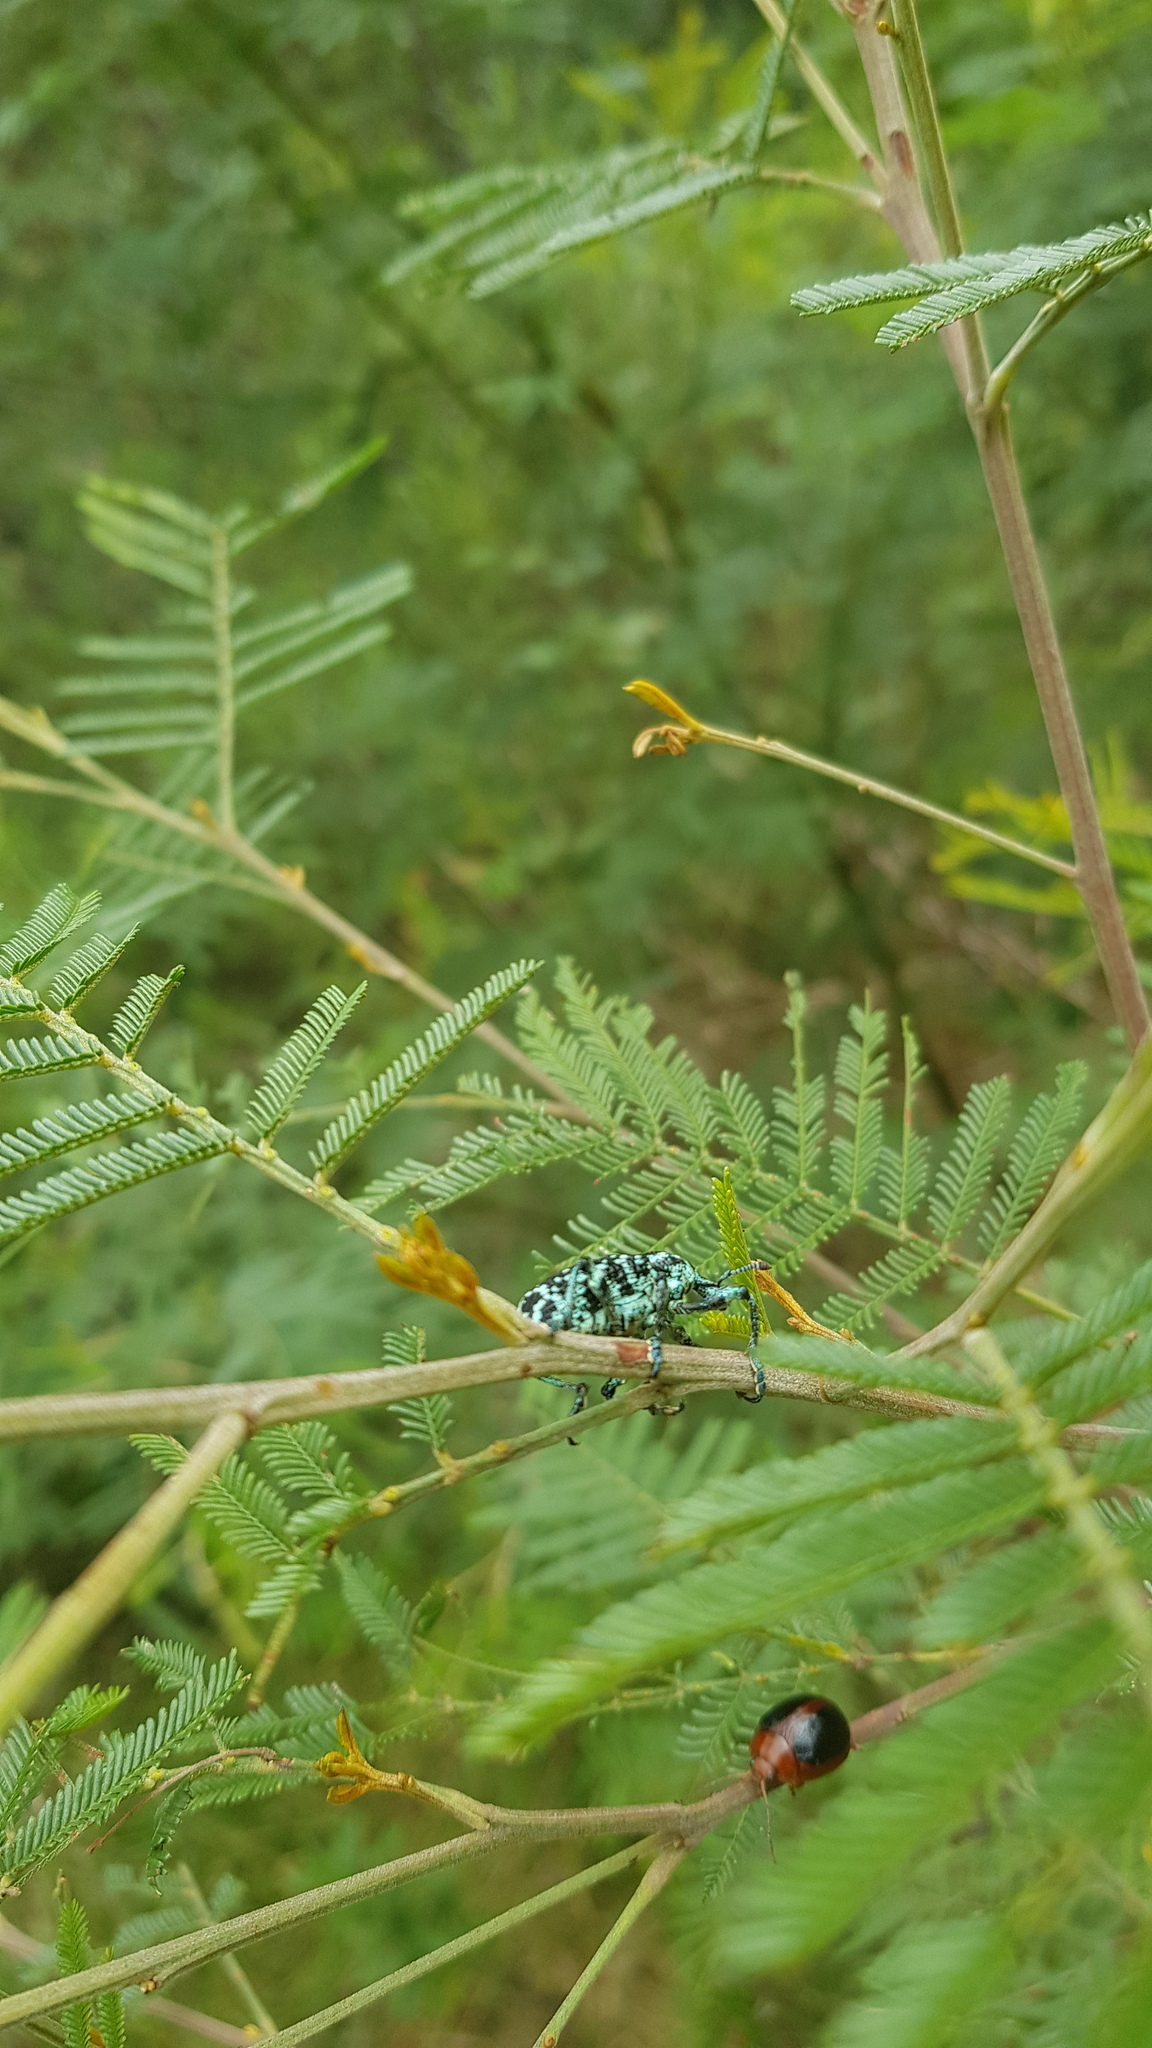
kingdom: Animalia
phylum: Arthropoda
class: Insecta
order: Coleoptera
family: Curculionidae
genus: Chrysolopus
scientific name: Chrysolopus spectabilis
